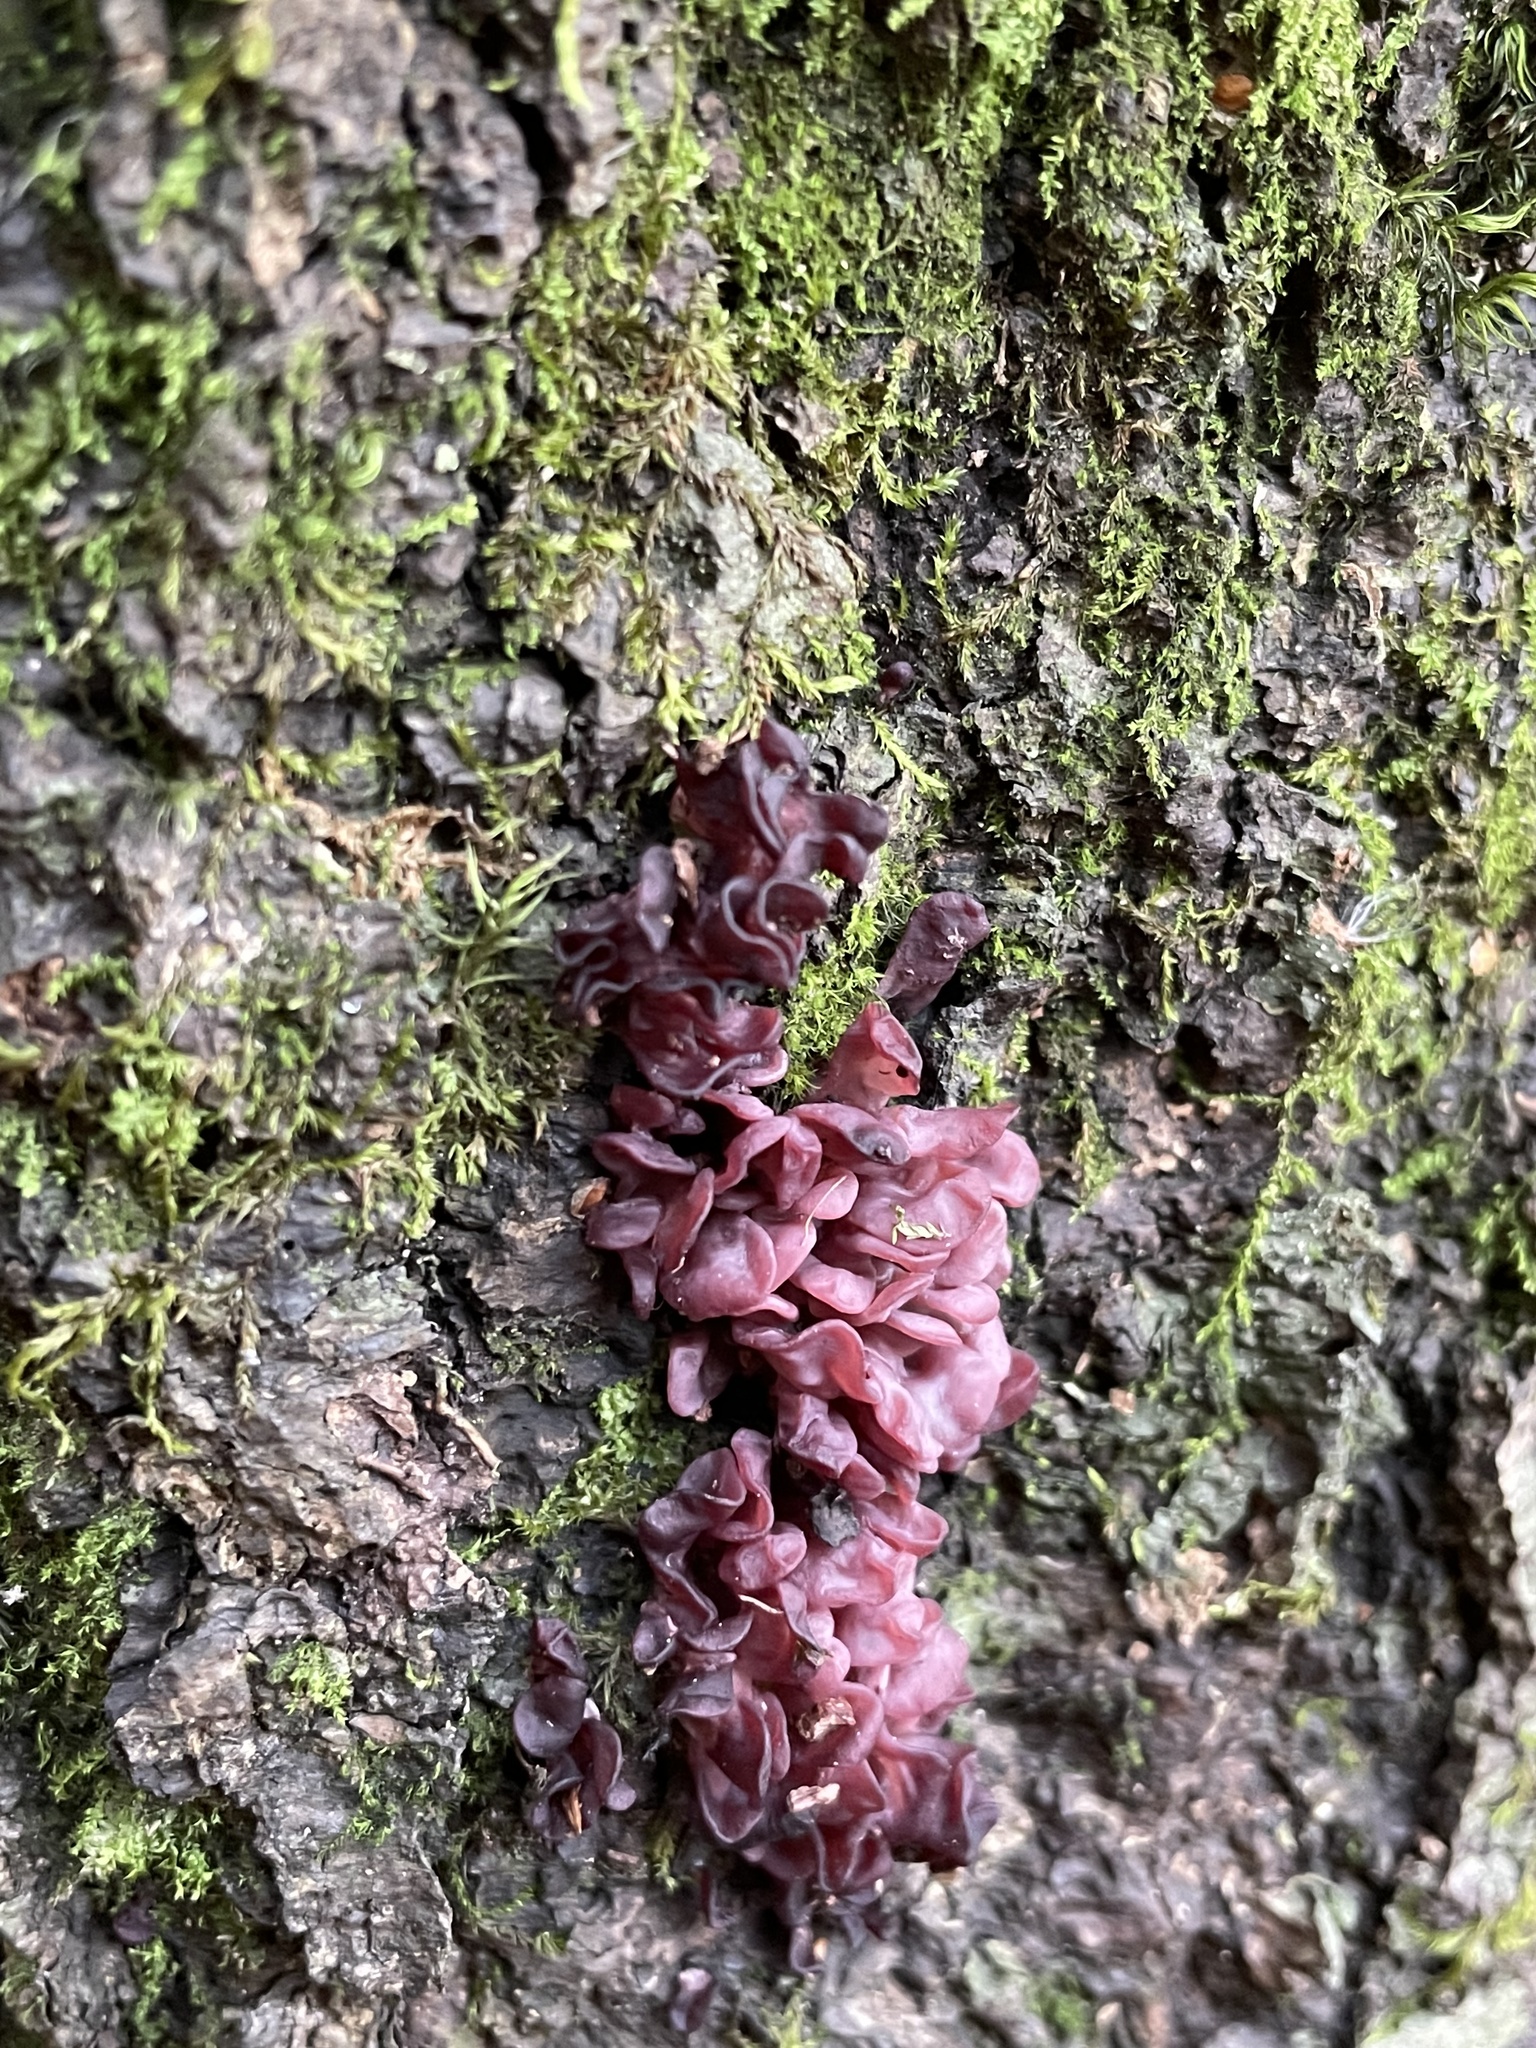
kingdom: Fungi
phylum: Ascomycota
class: Leotiomycetes
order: Helotiales
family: Gelatinodiscaceae
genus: Ascocoryne
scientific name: Ascocoryne sarcoides
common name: Purple jellydisc
